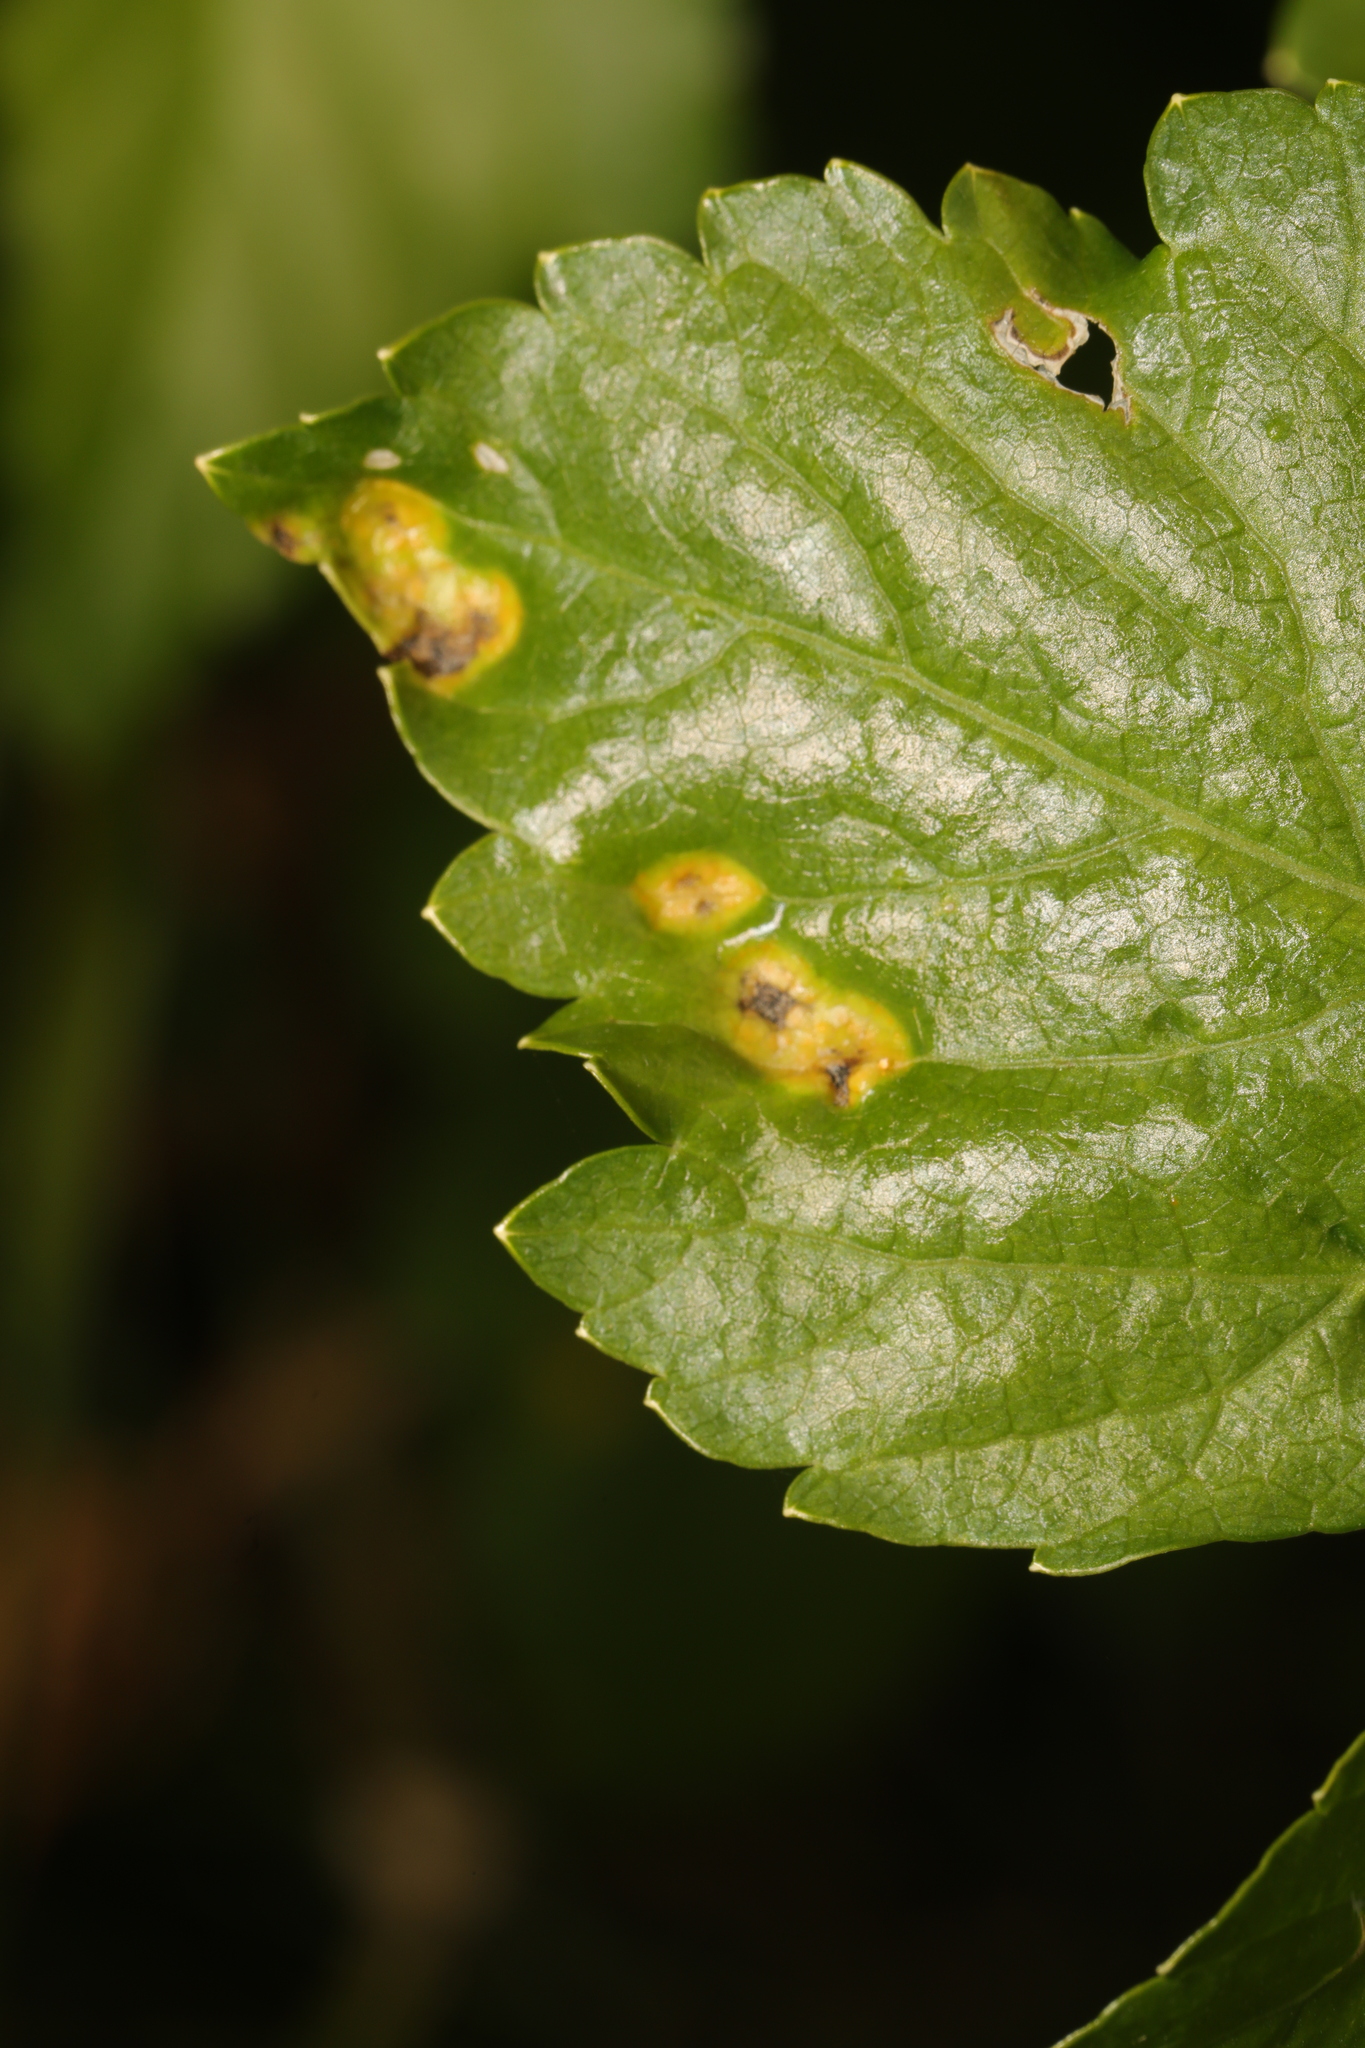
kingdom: Fungi
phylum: Basidiomycota
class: Pucciniomycetes
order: Pucciniales
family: Pucciniaceae
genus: Puccinia
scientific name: Puccinia smyrnii
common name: Alexanders rust
